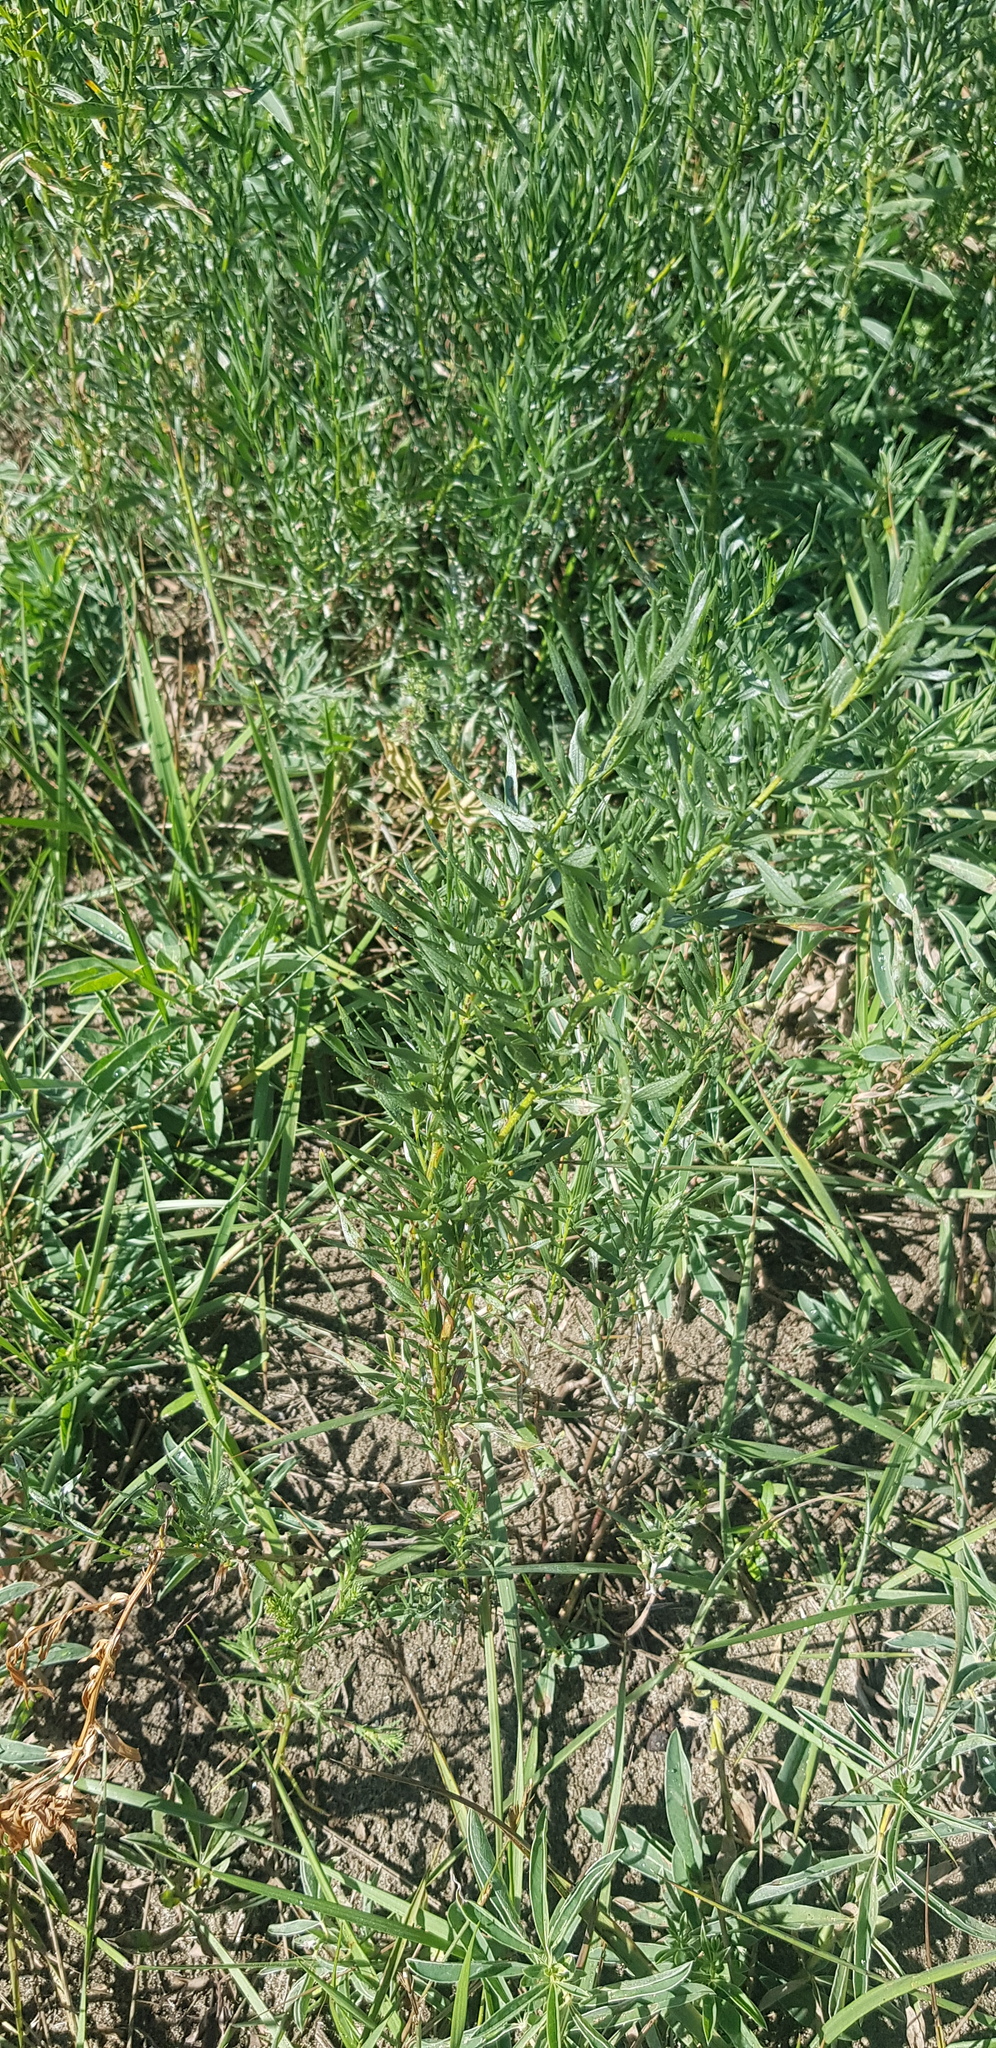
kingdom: Plantae
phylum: Tracheophyta
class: Magnoliopsida
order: Asterales
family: Asteraceae
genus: Artemisia
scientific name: Artemisia dracunculus
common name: Tarragon
